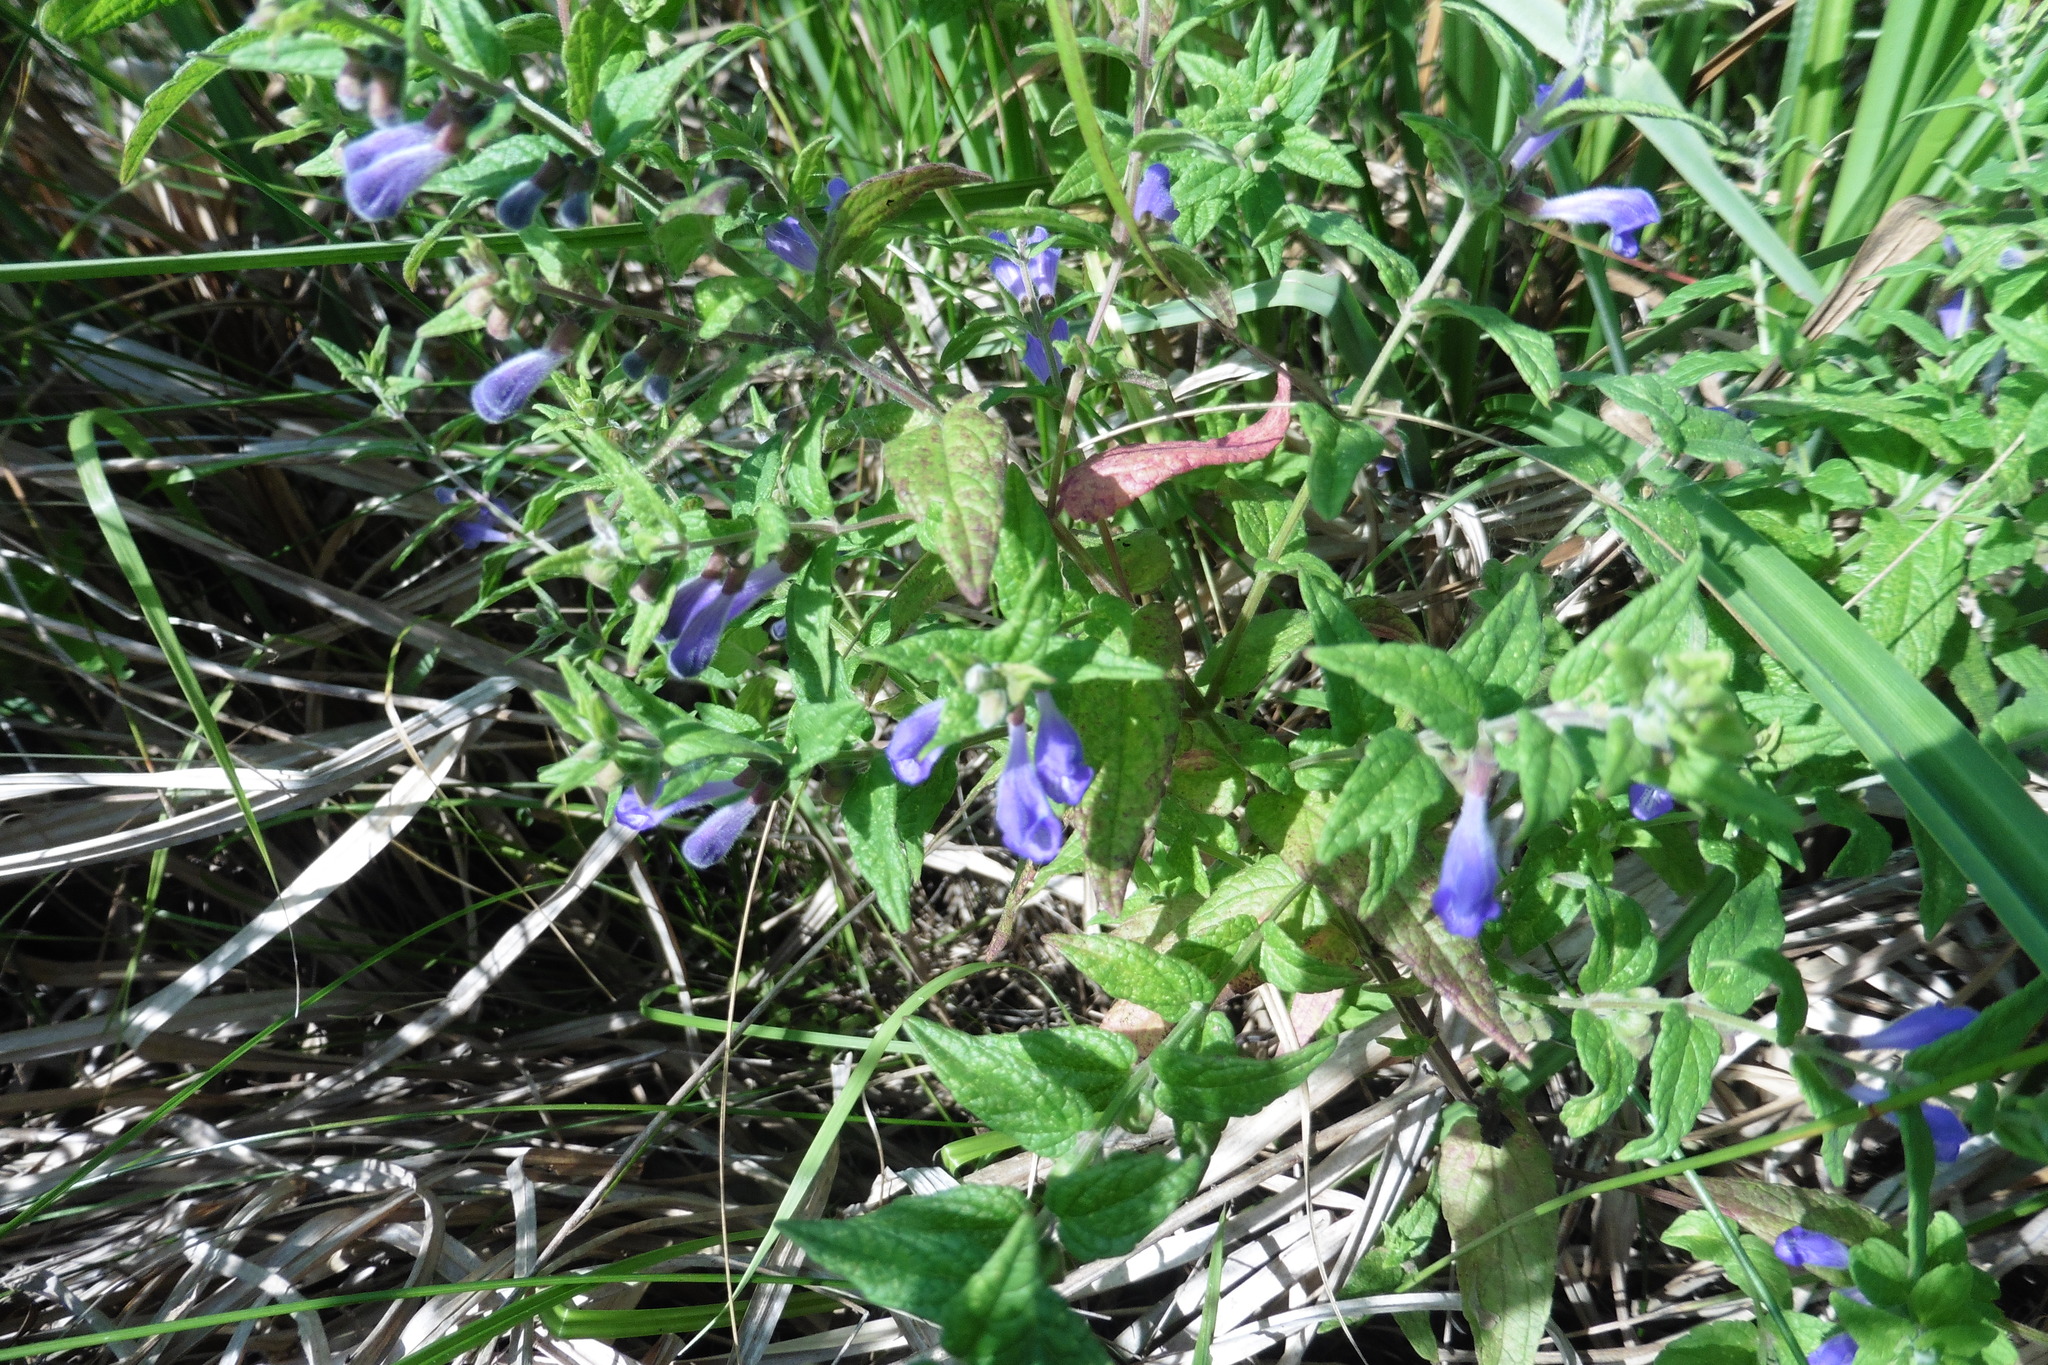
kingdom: Plantae
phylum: Tracheophyta
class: Magnoliopsida
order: Lamiales
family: Lamiaceae
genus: Scutellaria
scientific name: Scutellaria galericulata
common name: Skullcap
